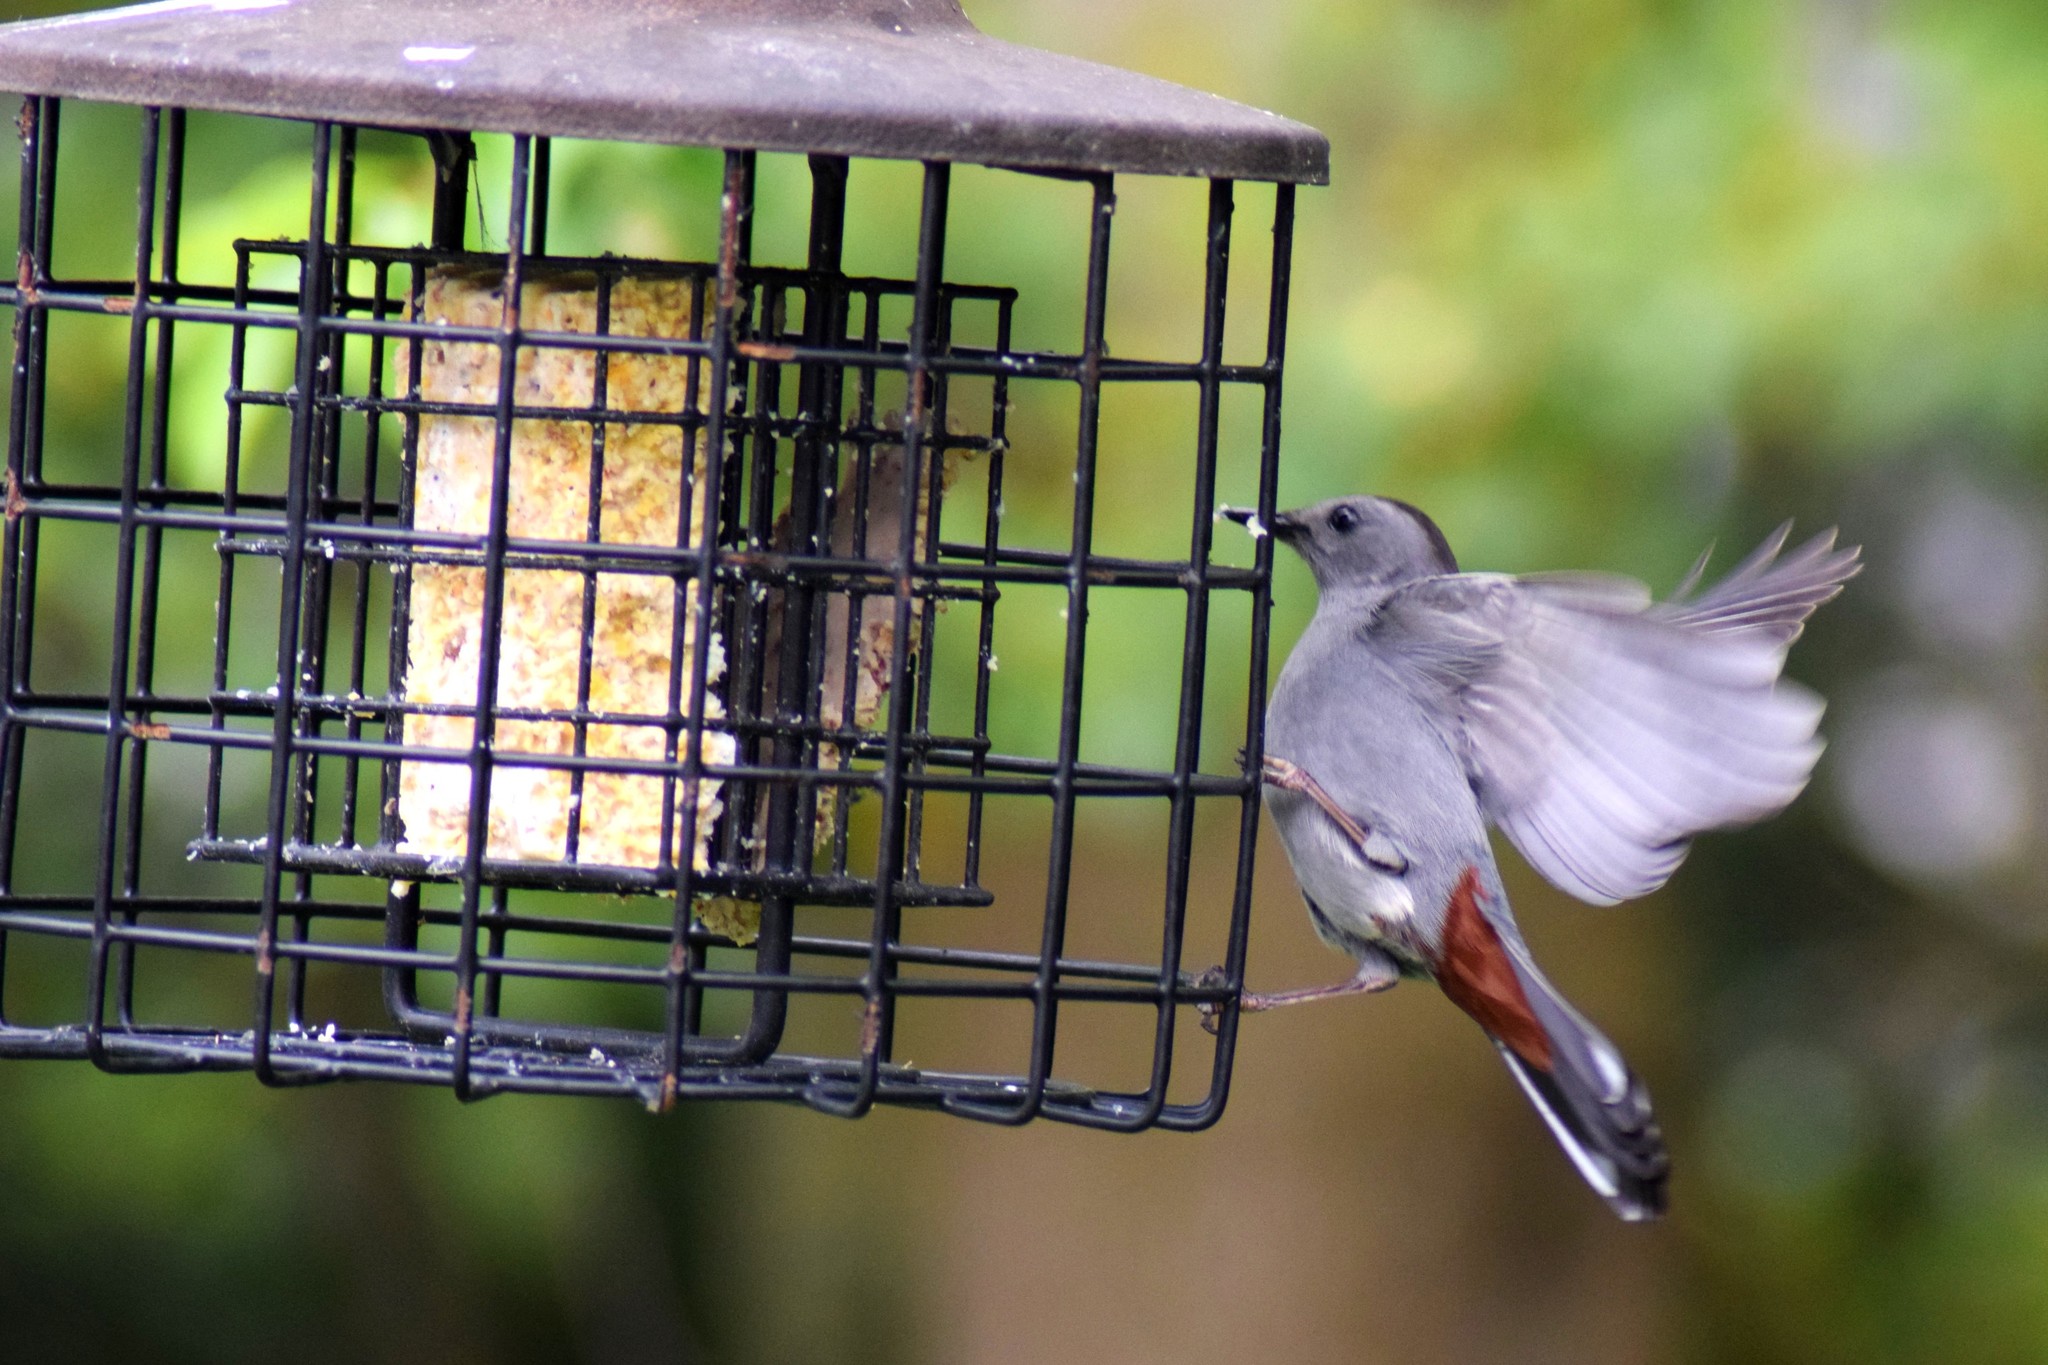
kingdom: Animalia
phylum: Chordata
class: Aves
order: Passeriformes
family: Mimidae
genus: Dumetella
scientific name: Dumetella carolinensis
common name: Gray catbird
